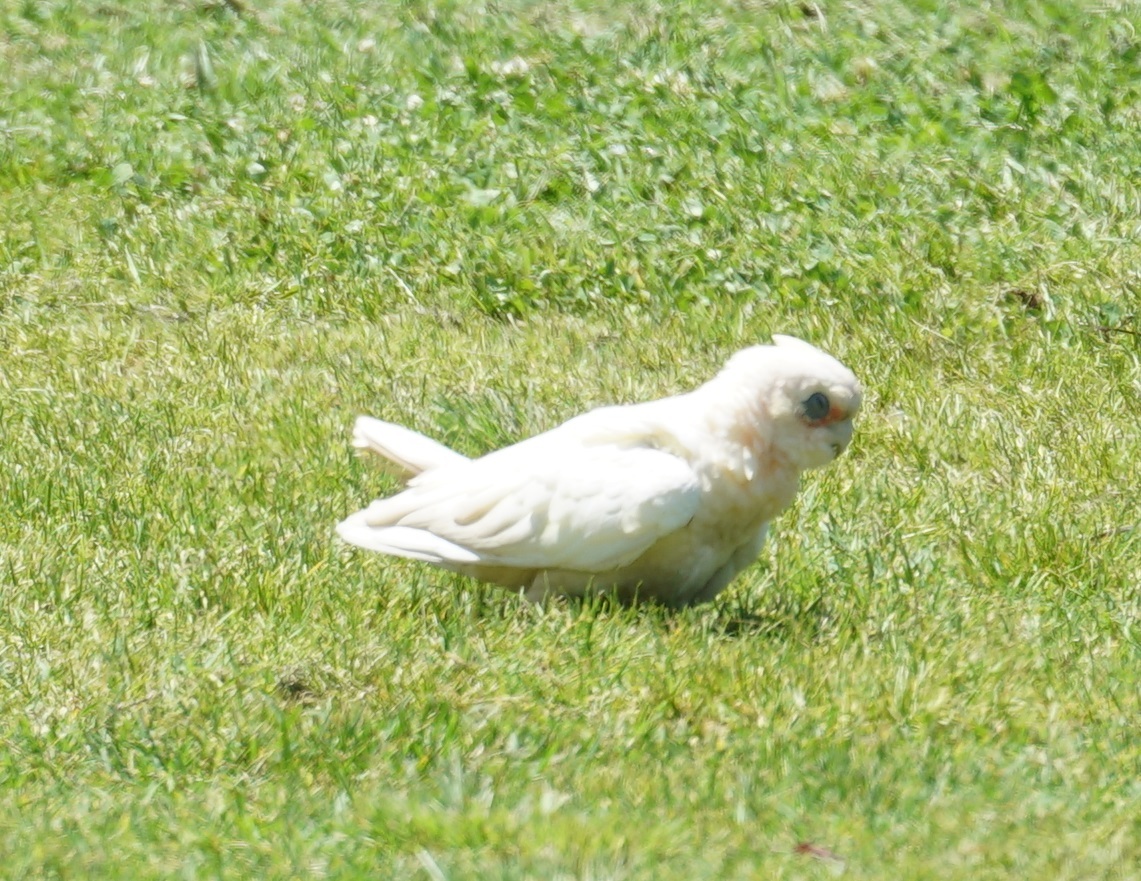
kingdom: Animalia
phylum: Chordata
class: Aves
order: Psittaciformes
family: Psittacidae
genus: Cacatua
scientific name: Cacatua sanguinea
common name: Little corella
